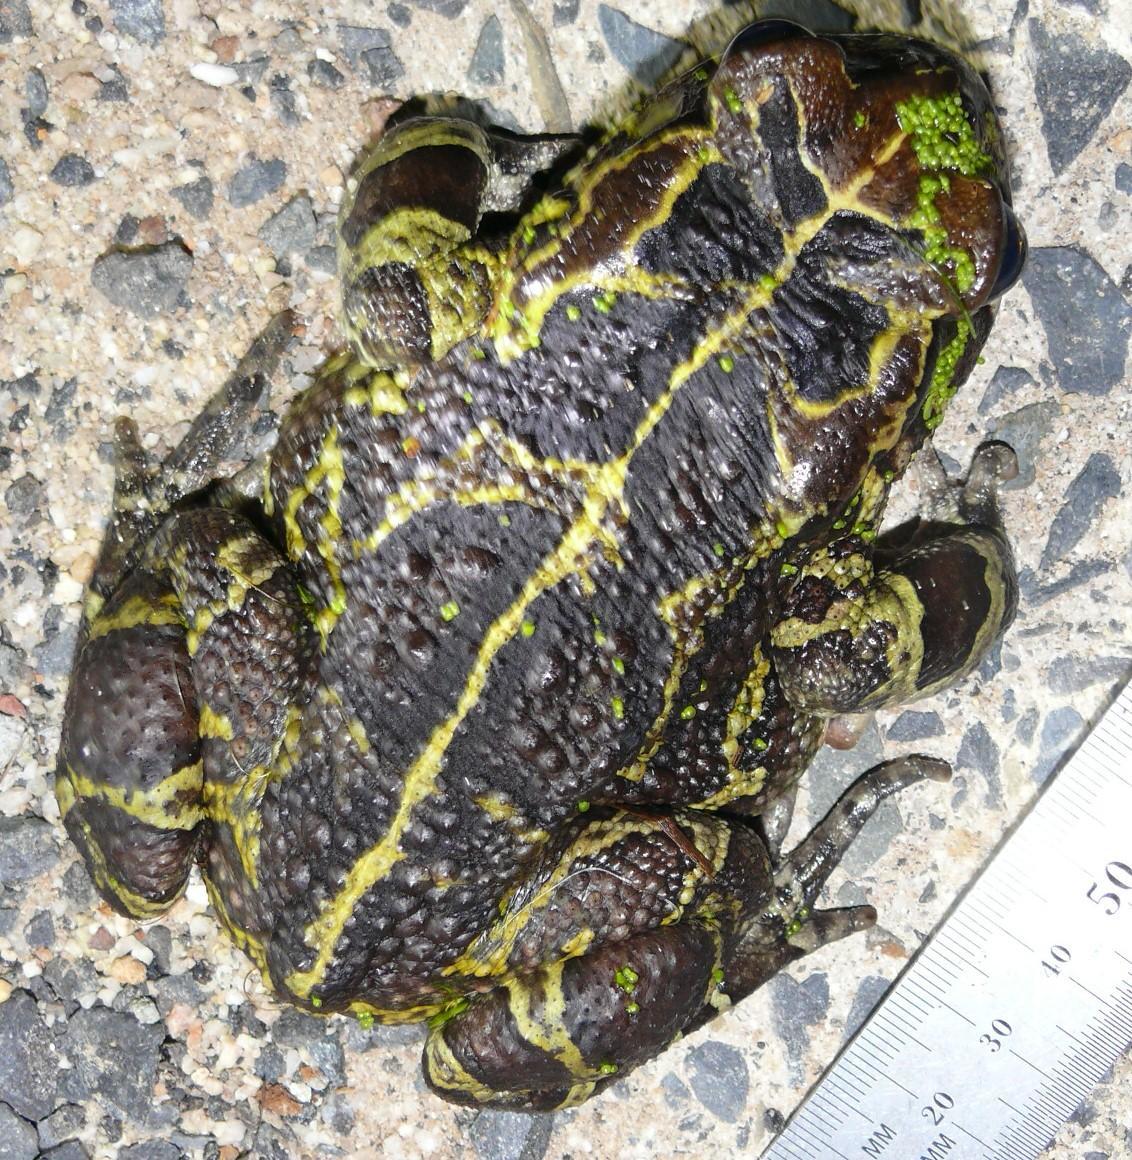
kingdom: Animalia
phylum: Chordata
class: Amphibia
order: Anura
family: Bufonidae
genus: Sclerophrys
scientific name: Sclerophrys pantherina
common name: Panther toad
